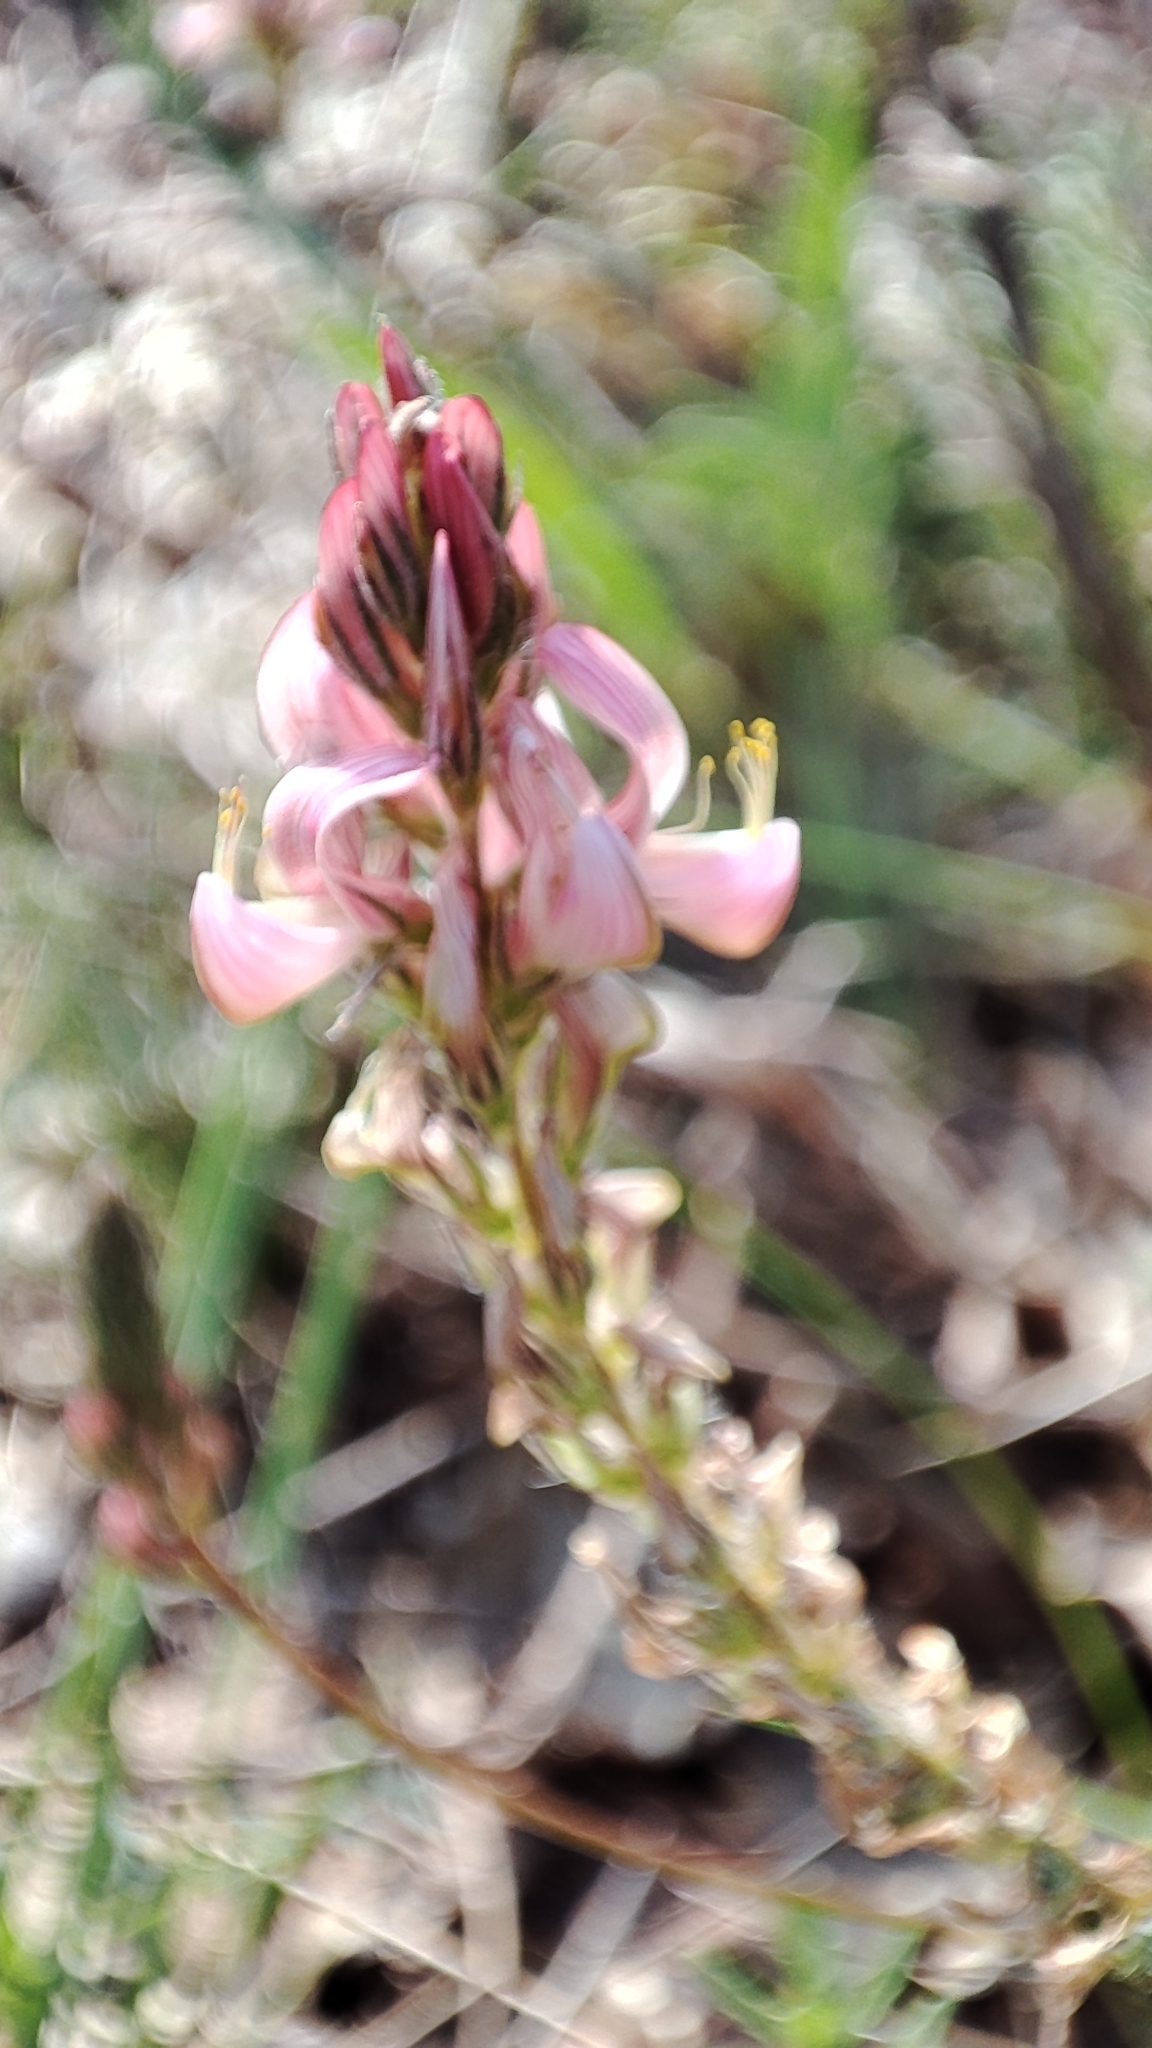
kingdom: Plantae
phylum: Tracheophyta
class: Magnoliopsida
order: Fabales
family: Fabaceae
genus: Onobrychis
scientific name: Onobrychis viciifolia
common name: Sainfoin
